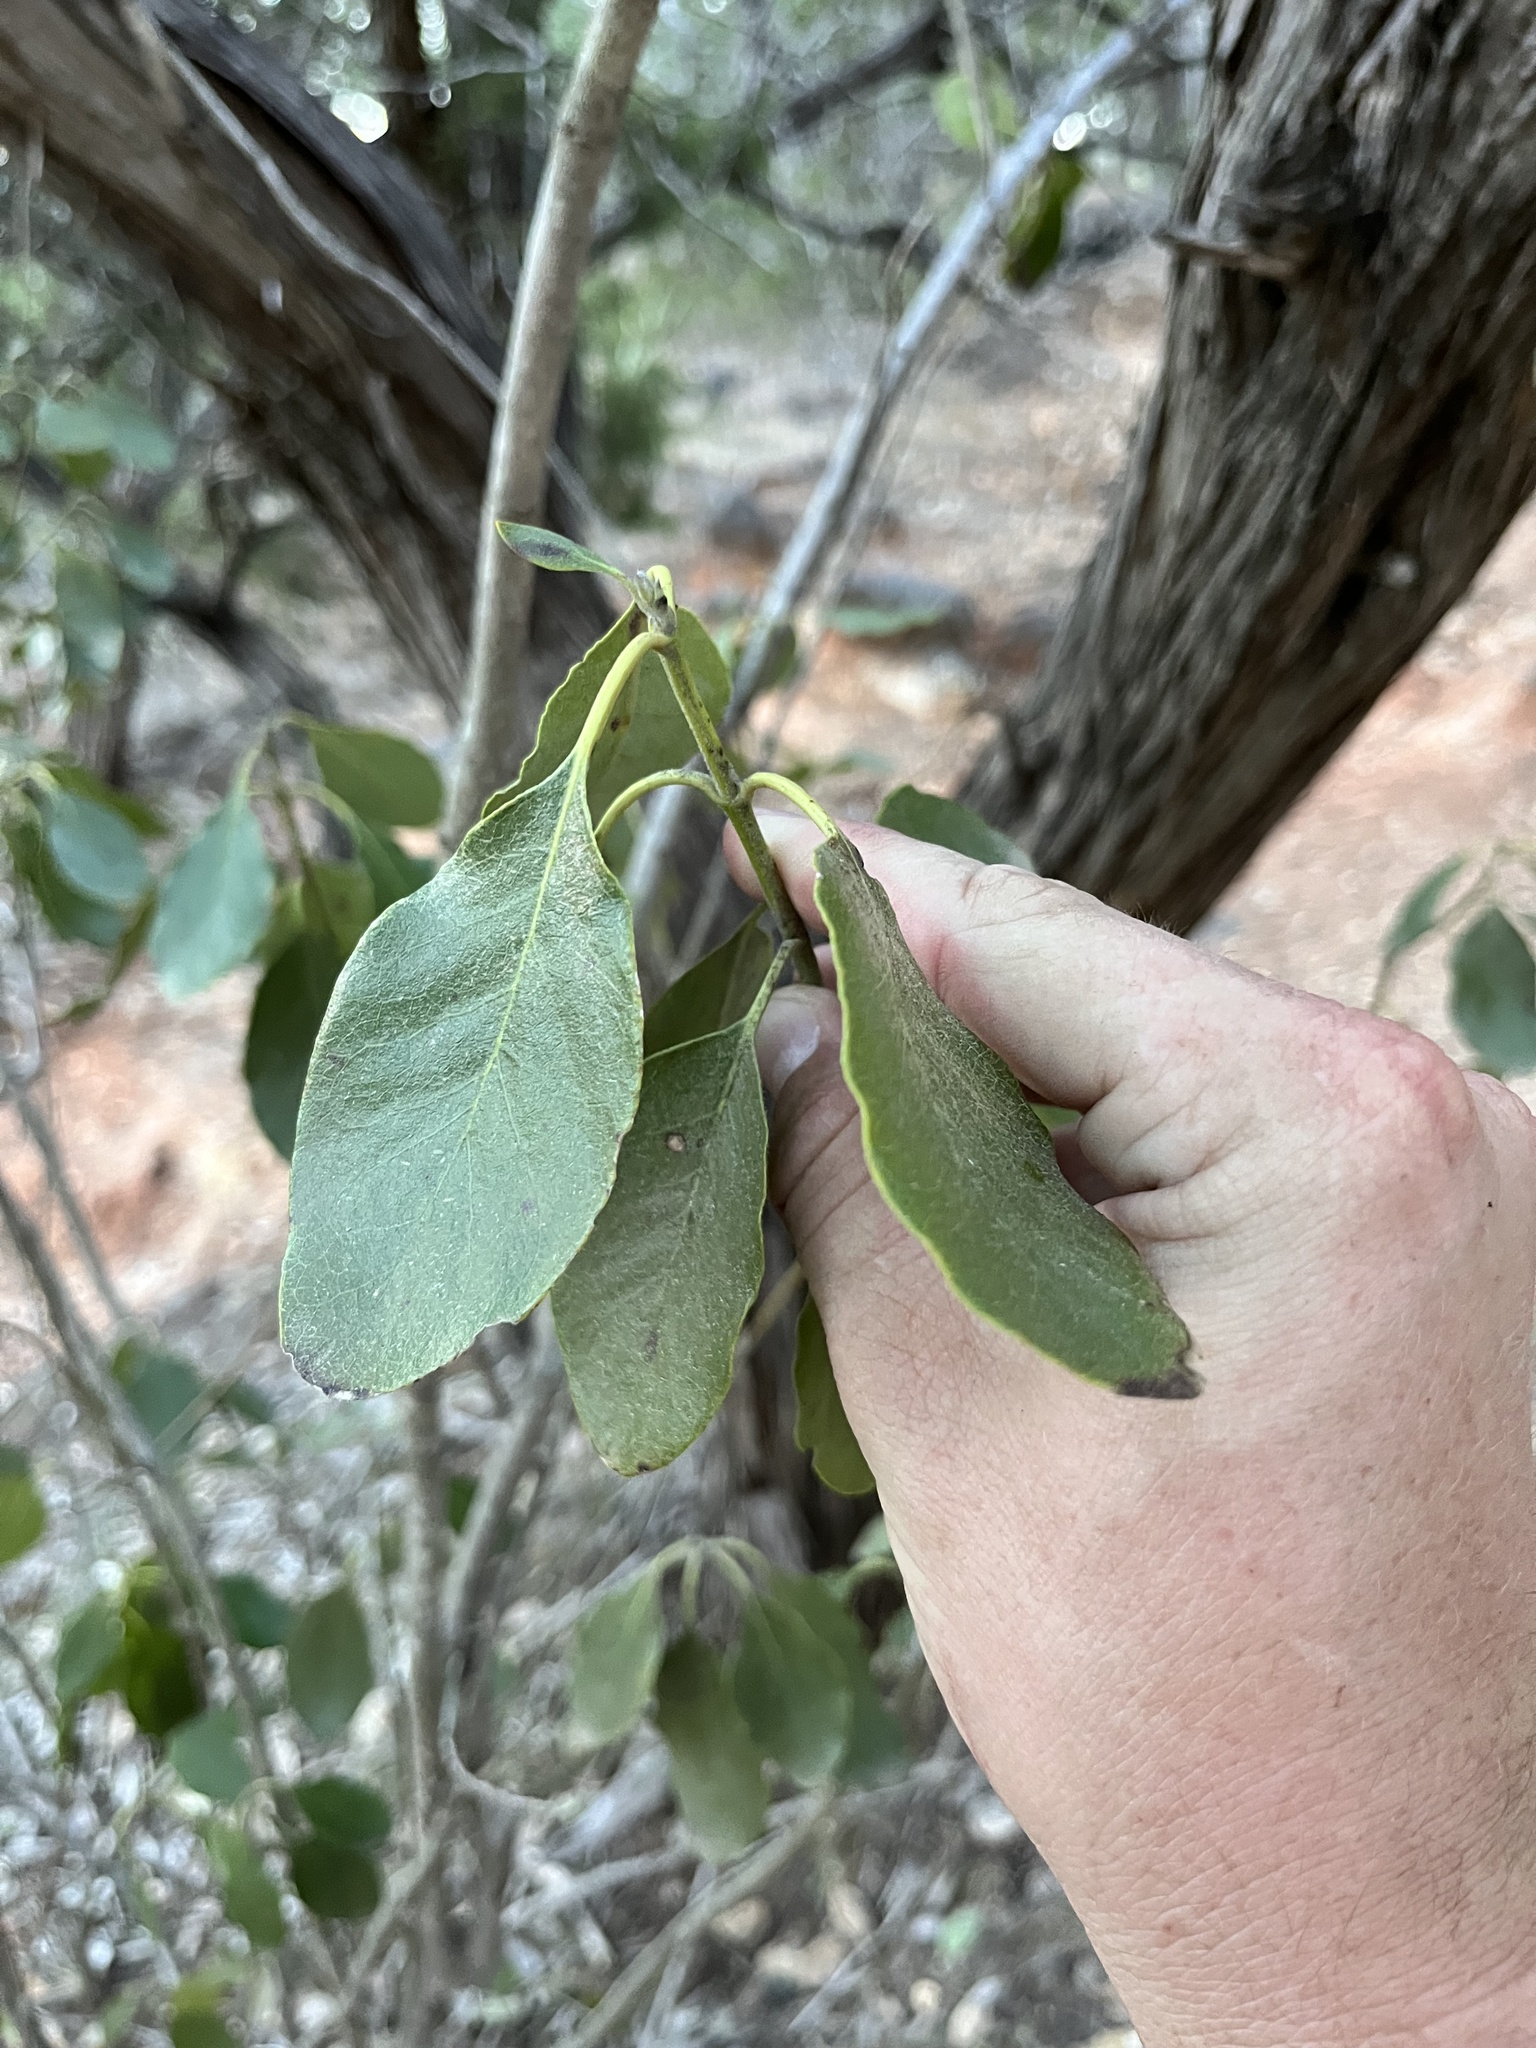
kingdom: Plantae
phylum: Tracheophyta
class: Magnoliopsida
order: Garryales
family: Garryaceae
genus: Garrya
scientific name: Garrya lindheimeri
